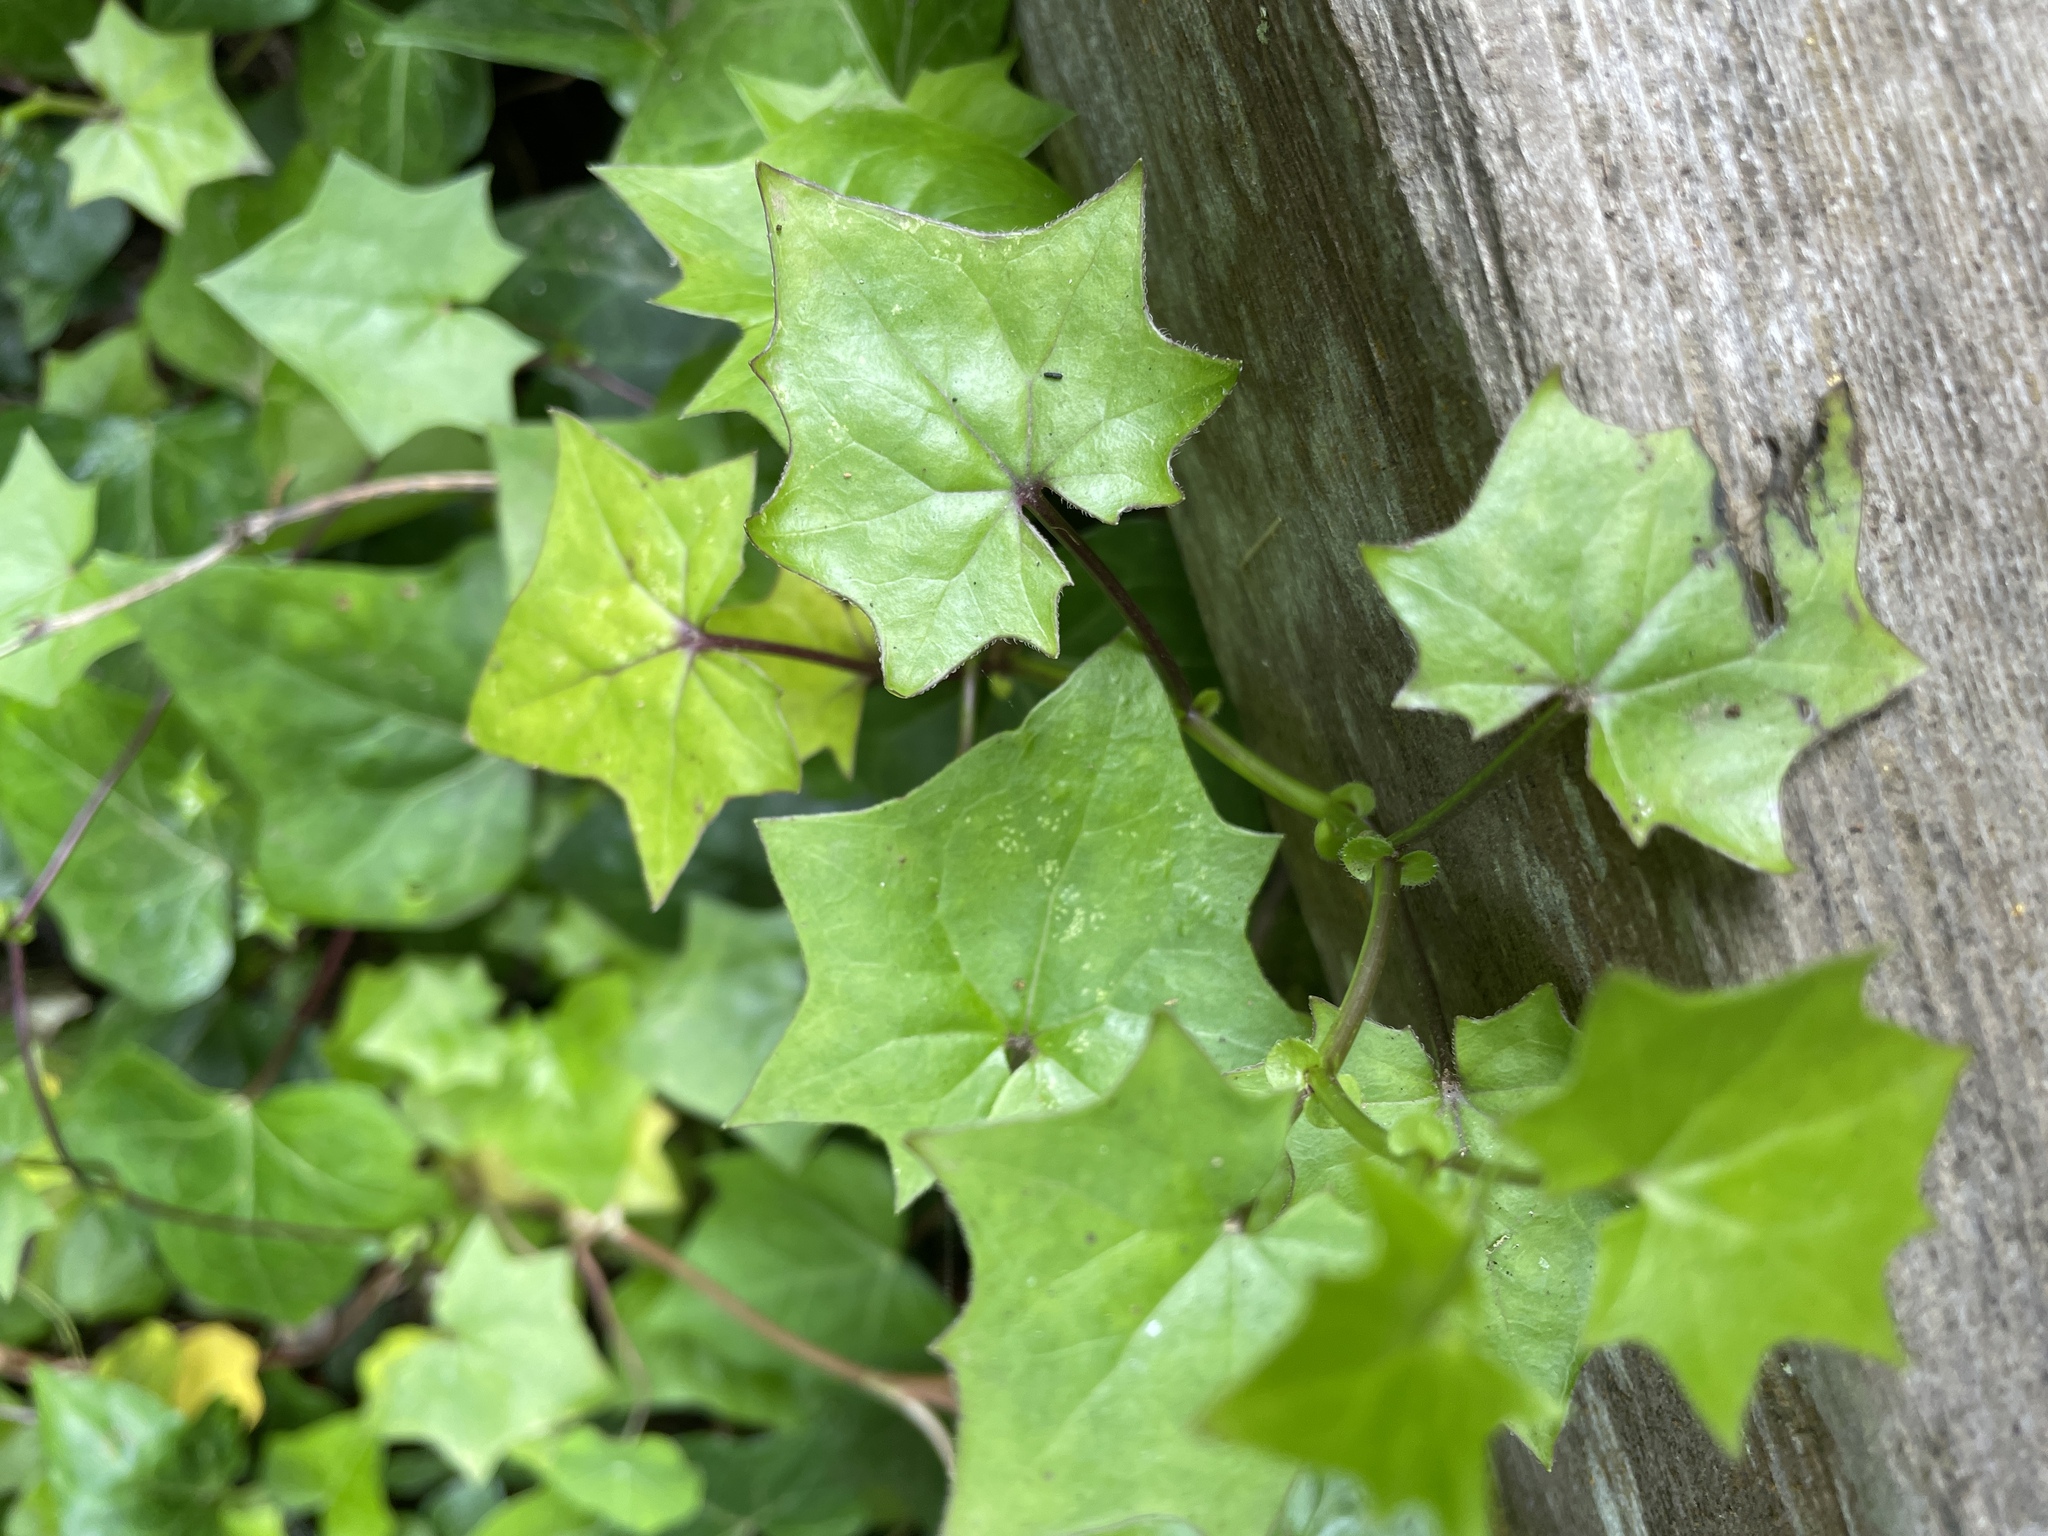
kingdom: Plantae
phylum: Tracheophyta
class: Magnoliopsida
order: Asterales
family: Asteraceae
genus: Delairea
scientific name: Delairea odorata
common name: Cape-ivy
